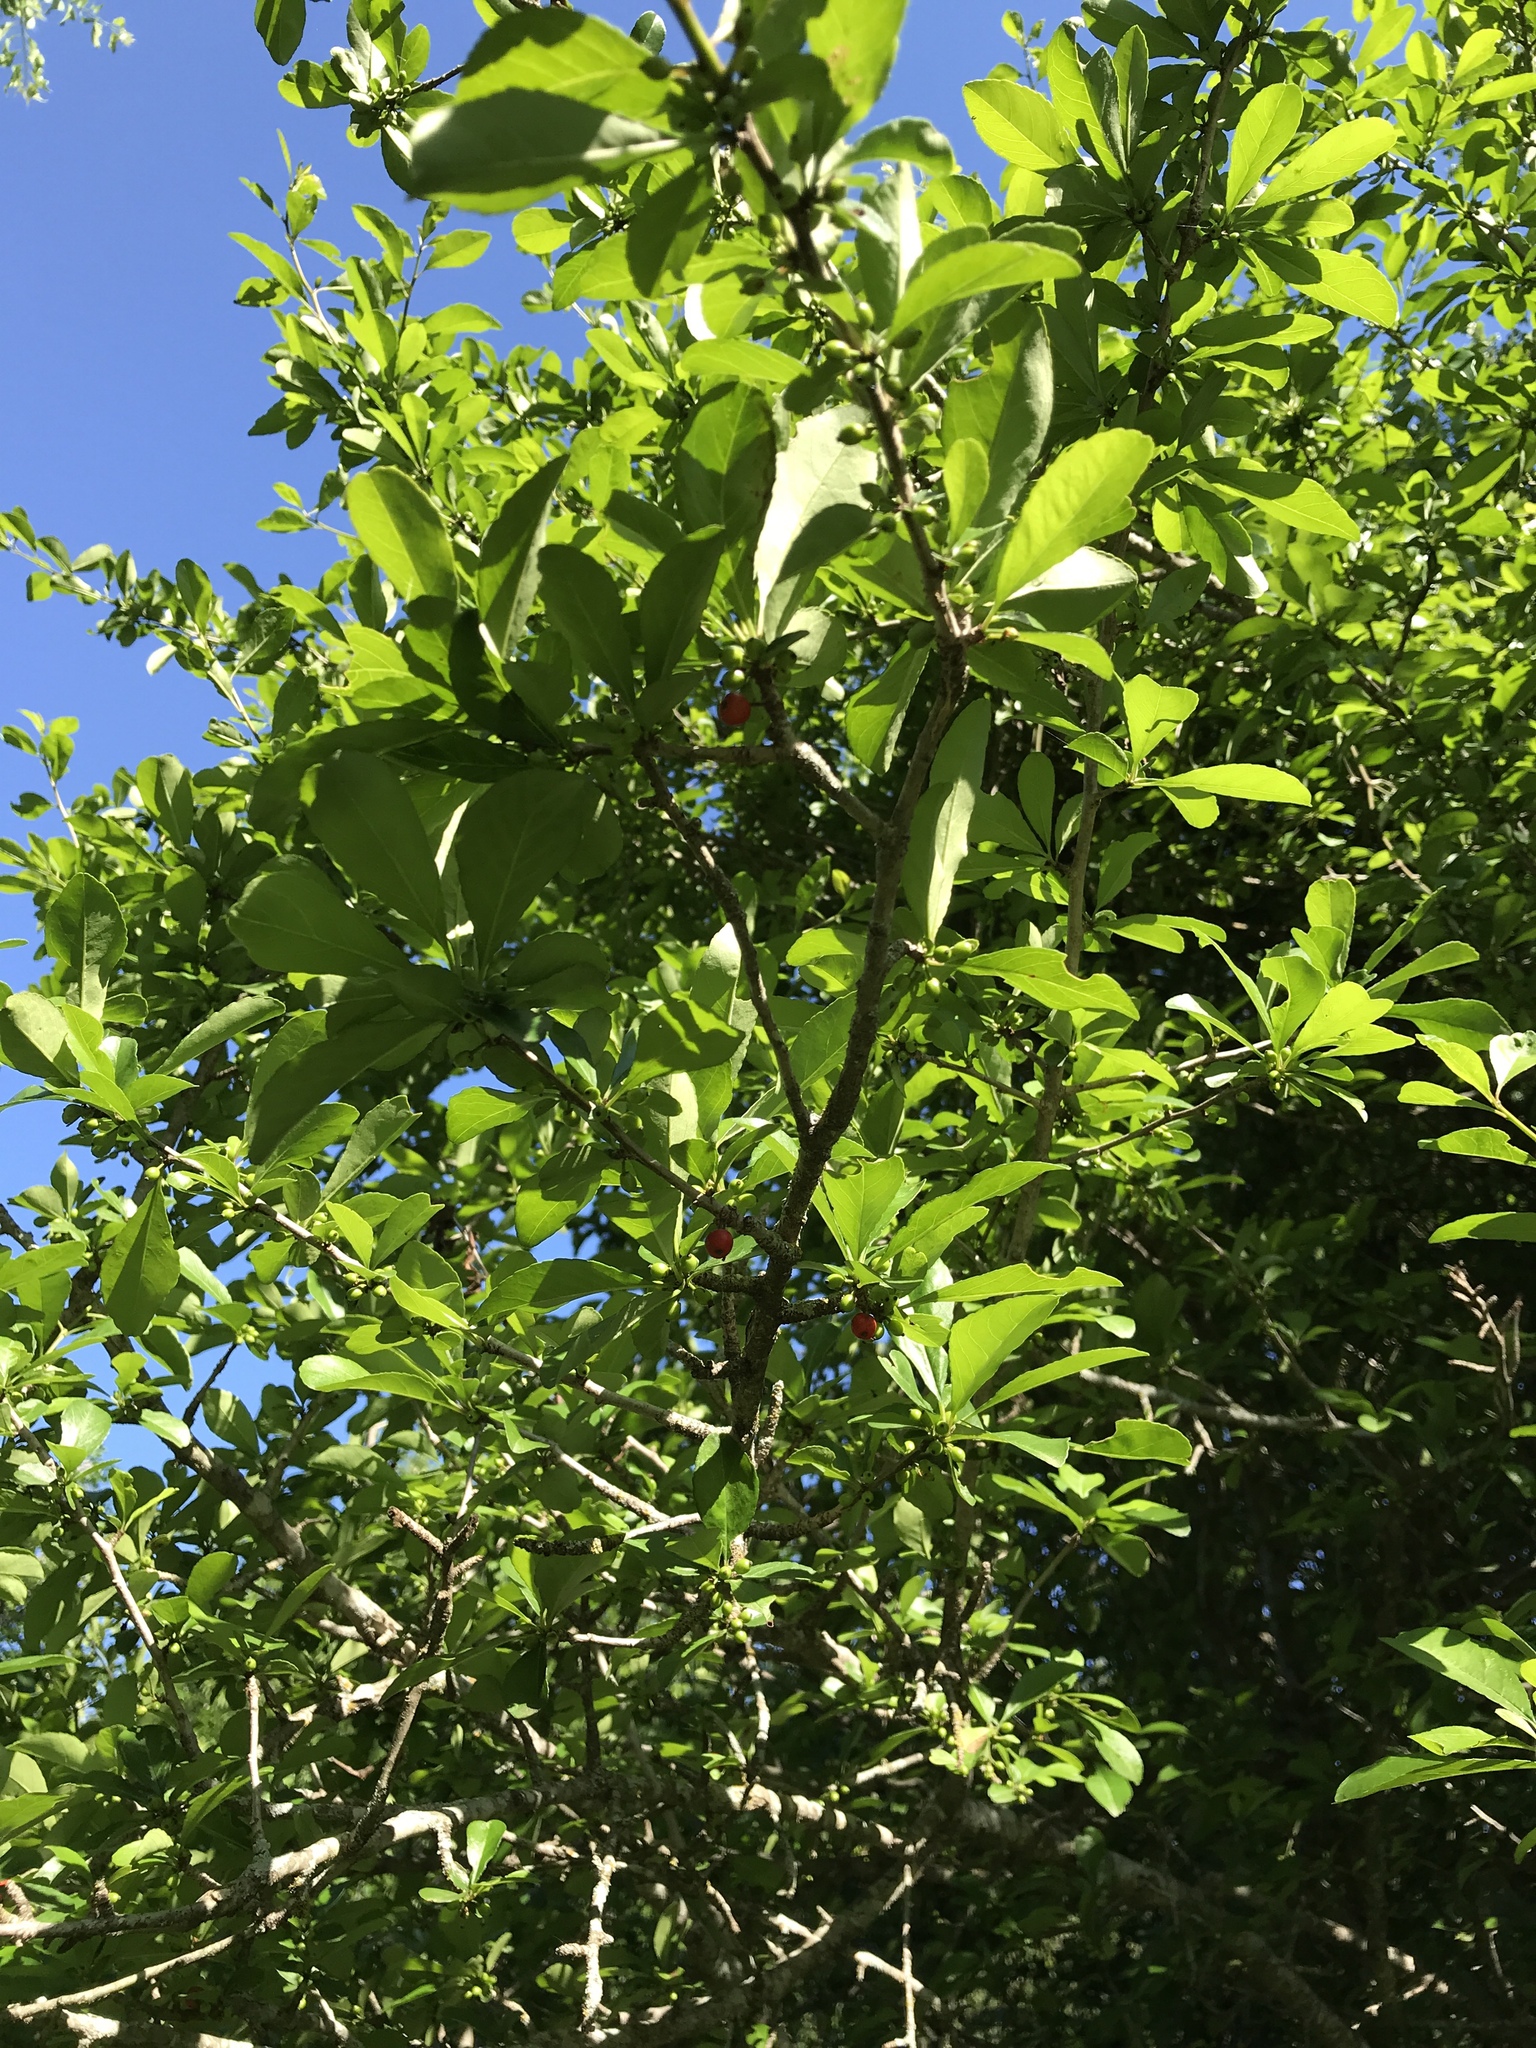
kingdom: Plantae
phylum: Tracheophyta
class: Magnoliopsida
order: Aquifoliales
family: Aquifoliaceae
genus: Ilex
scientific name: Ilex decidua
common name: Possum-haw
